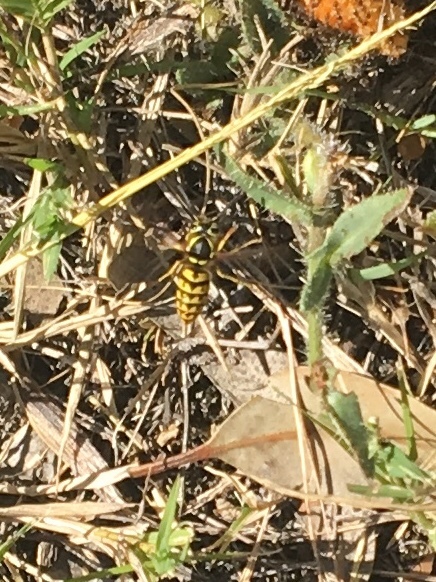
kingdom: Animalia
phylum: Arthropoda
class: Insecta
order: Hymenoptera
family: Vespidae
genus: Vespula
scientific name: Vespula pensylvanica
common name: Western yellowjacket
